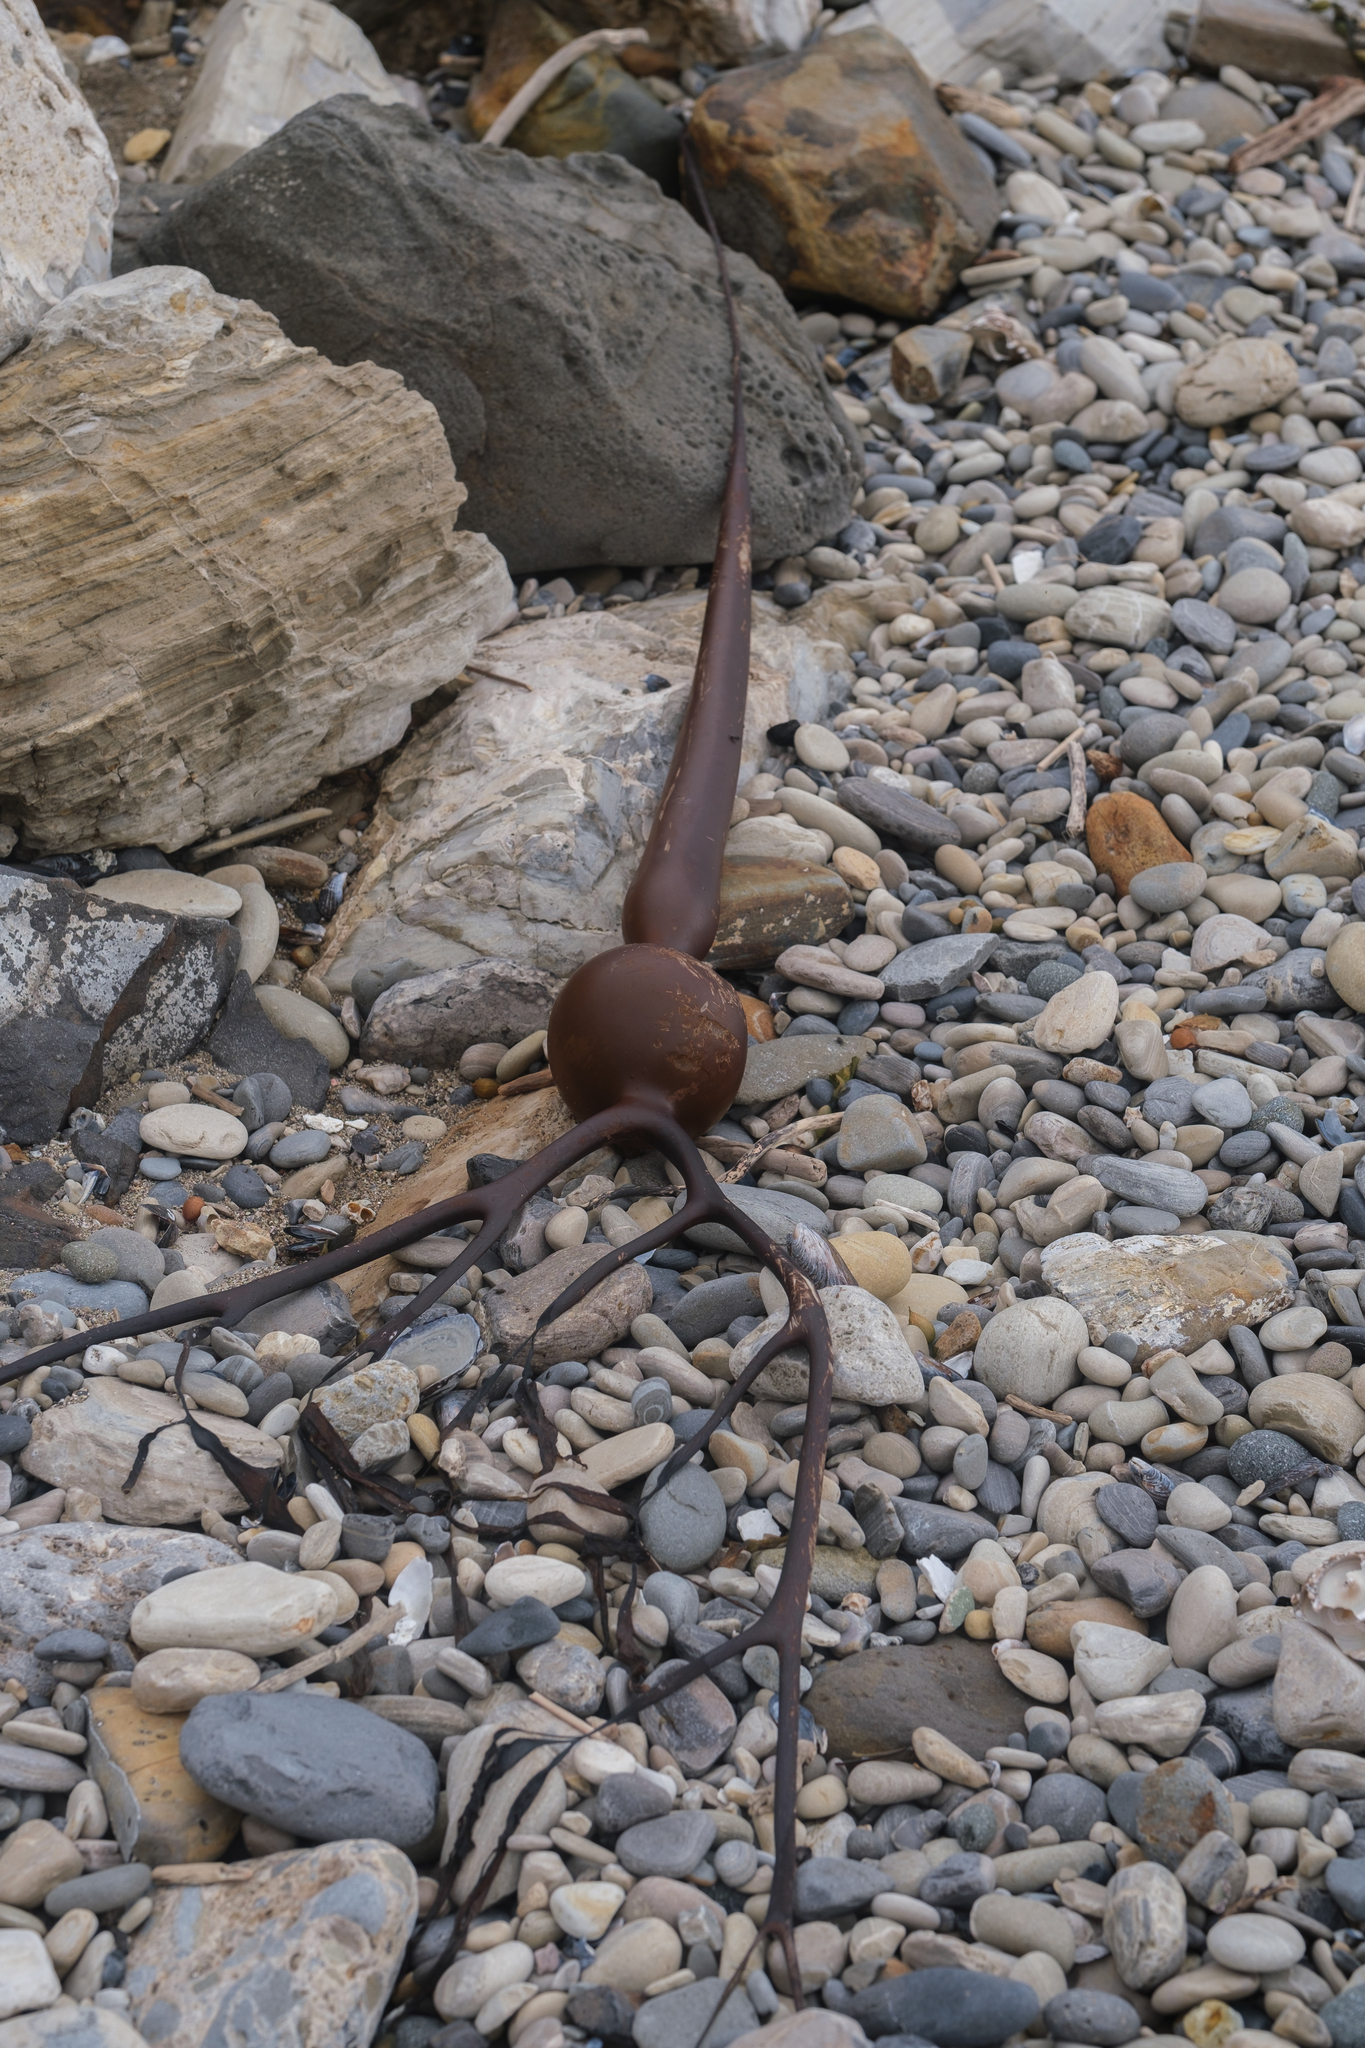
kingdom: Chromista
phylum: Ochrophyta
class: Phaeophyceae
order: Laminariales
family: Laminariaceae
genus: Pelagophycus
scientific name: Pelagophycus porra
